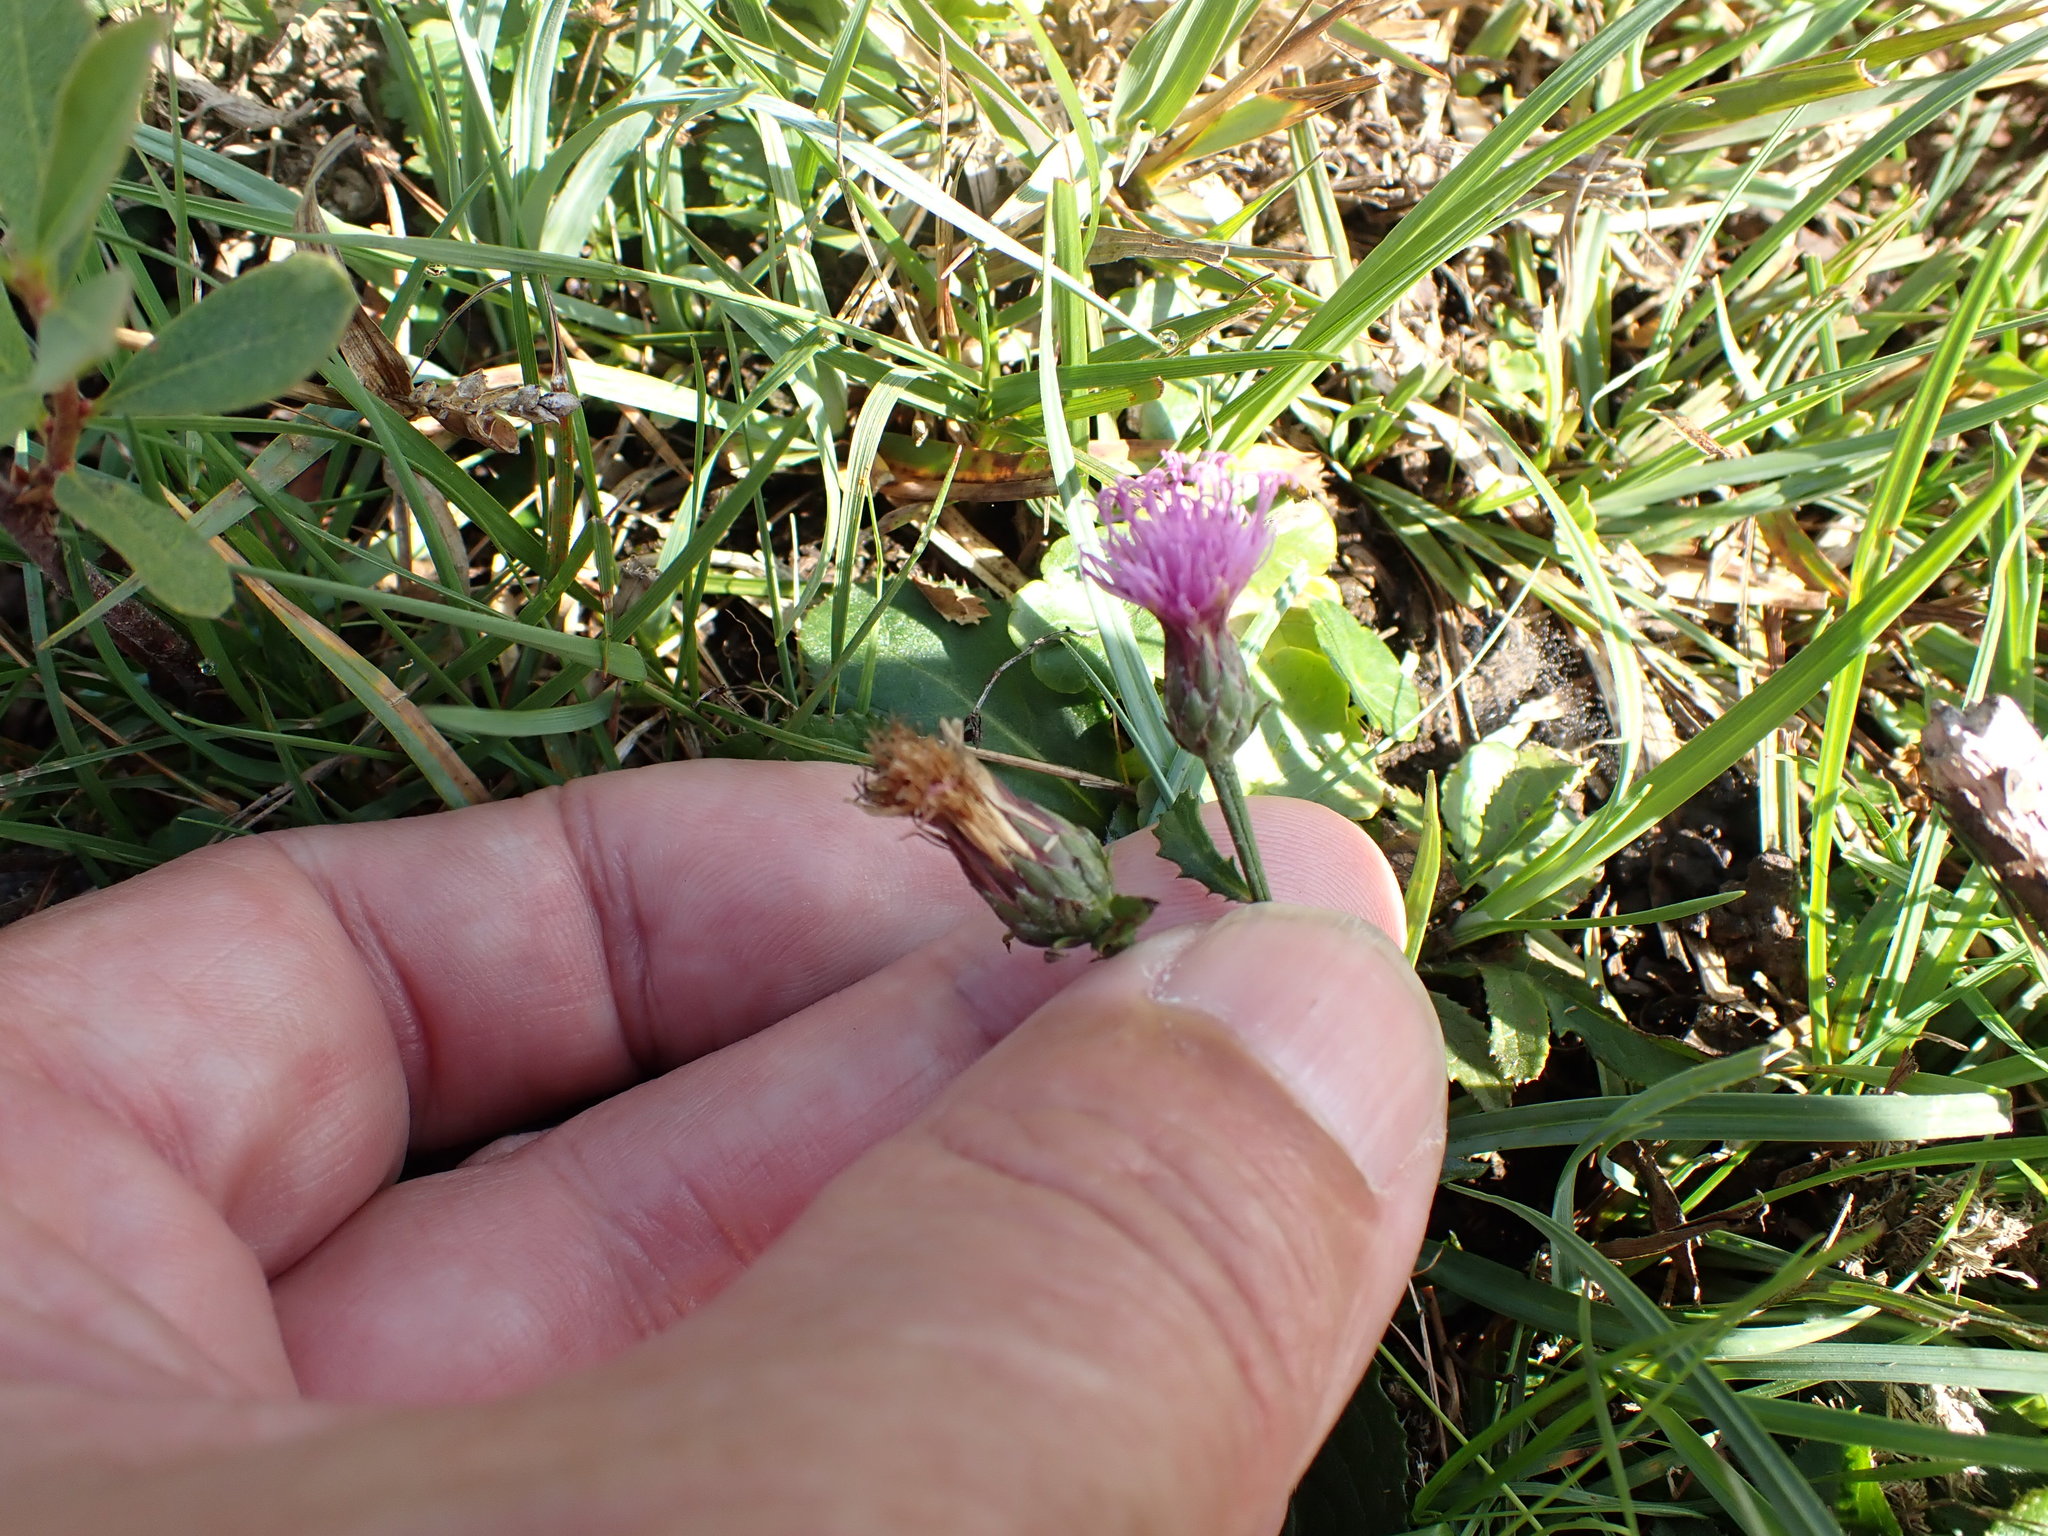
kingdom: Plantae
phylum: Tracheophyta
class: Magnoliopsida
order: Asterales
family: Asteraceae
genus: Serratula
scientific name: Serratula tinctoria
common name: Saw-wort
